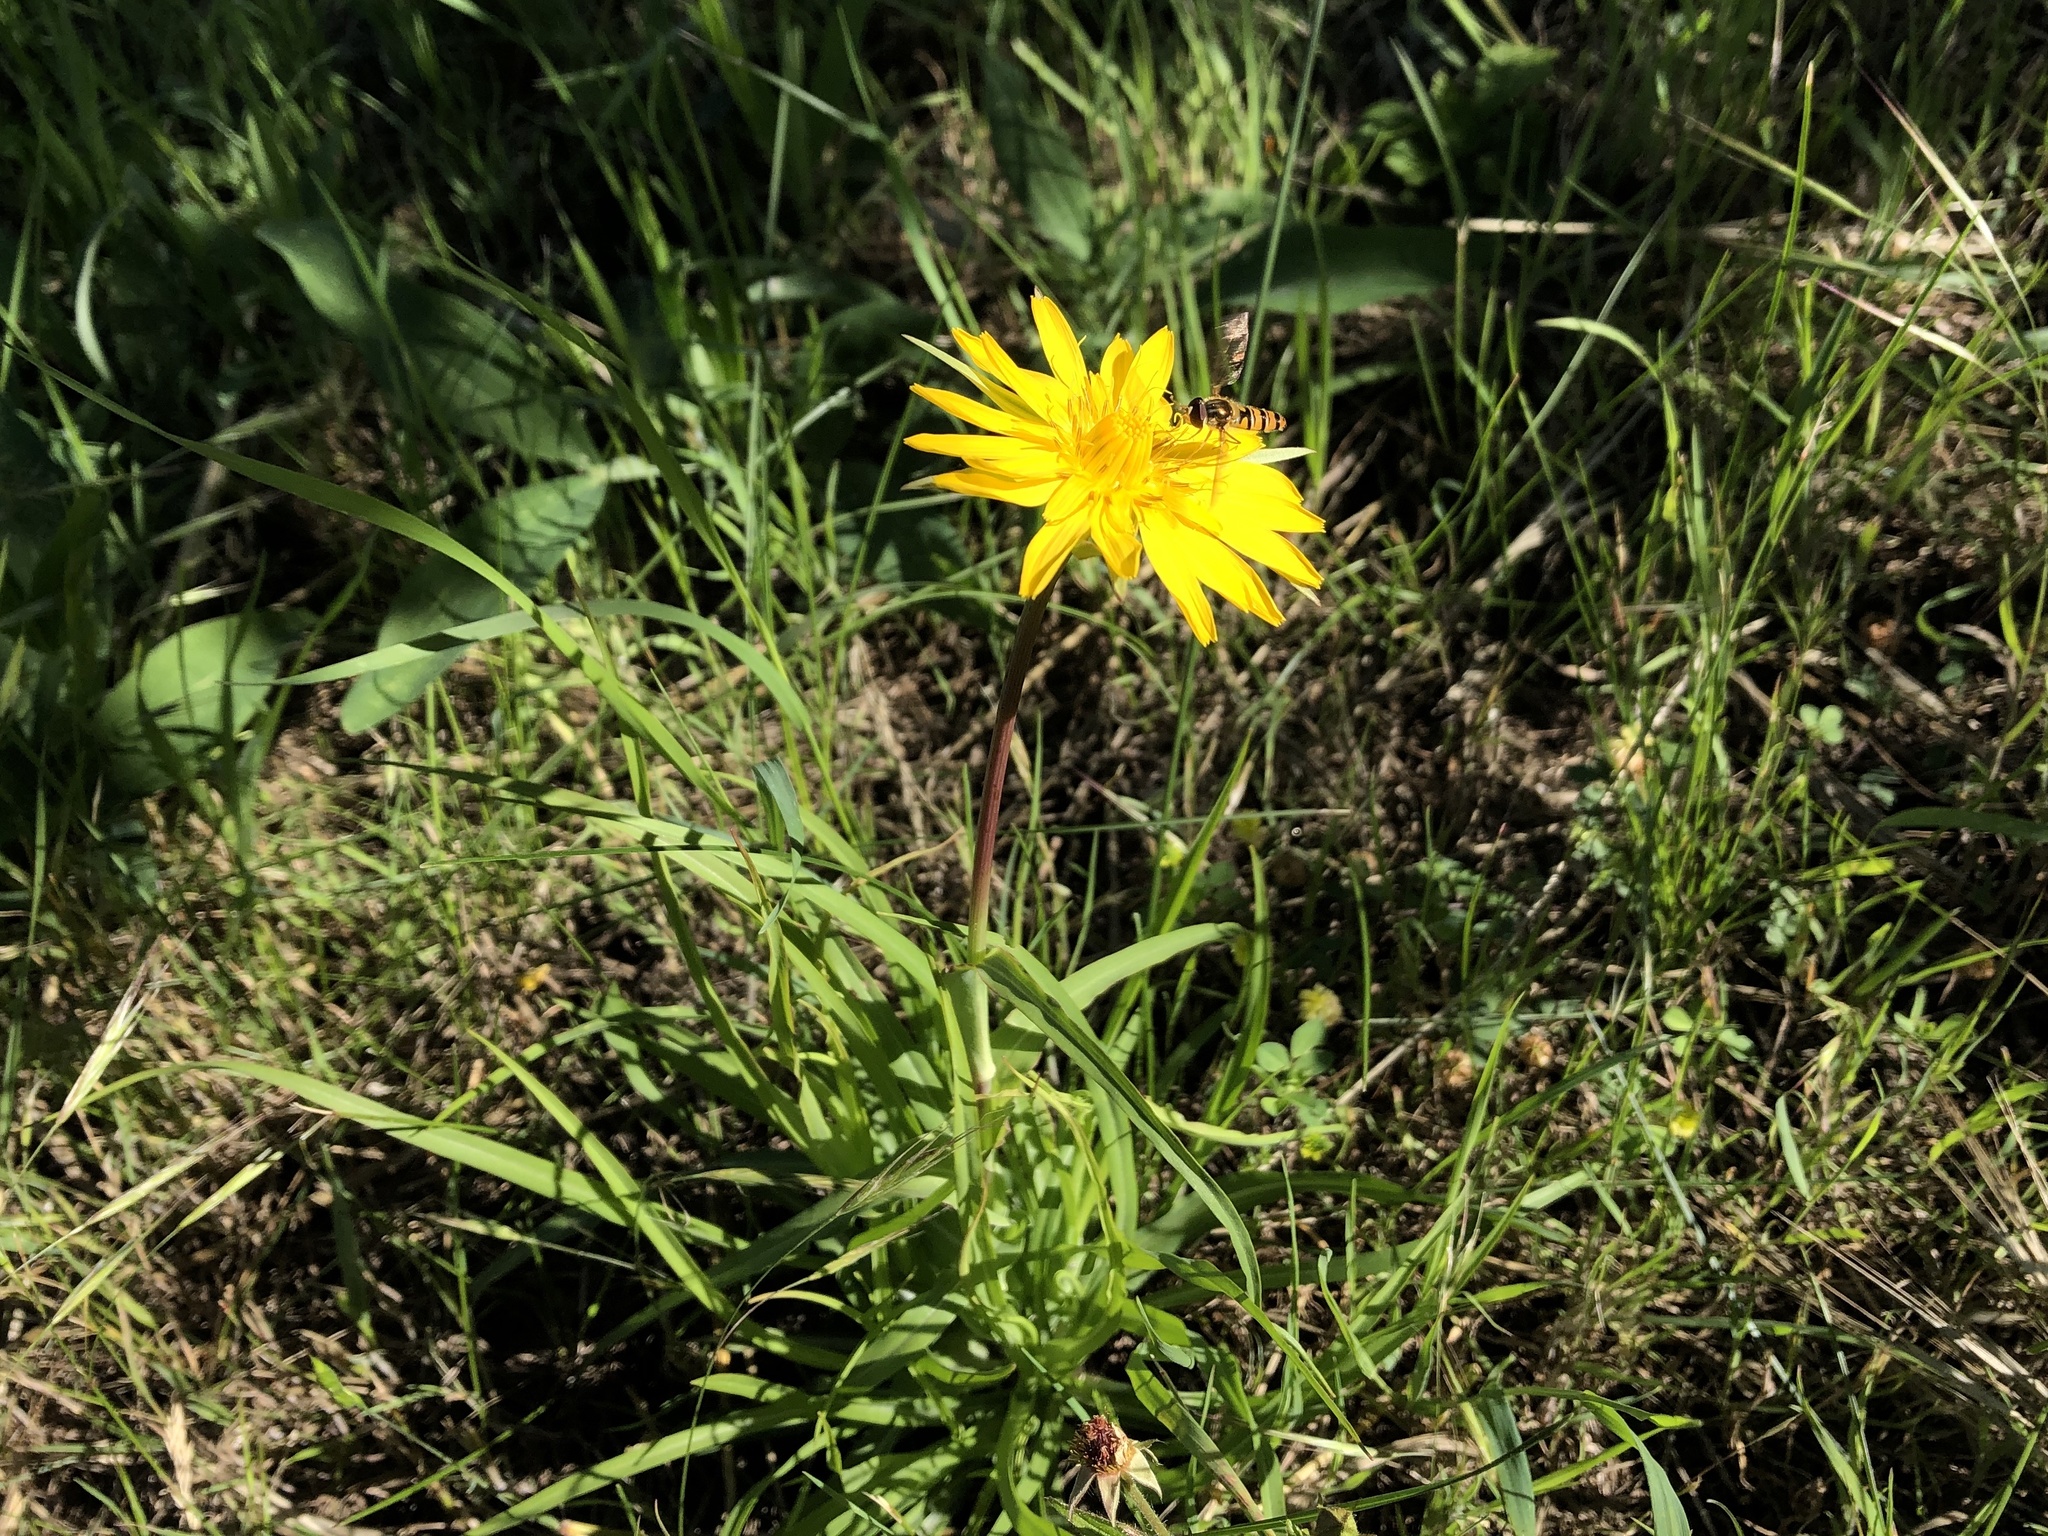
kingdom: Plantae
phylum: Tracheophyta
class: Magnoliopsida
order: Asterales
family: Asteraceae
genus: Tragopogon
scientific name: Tragopogon orientalis
